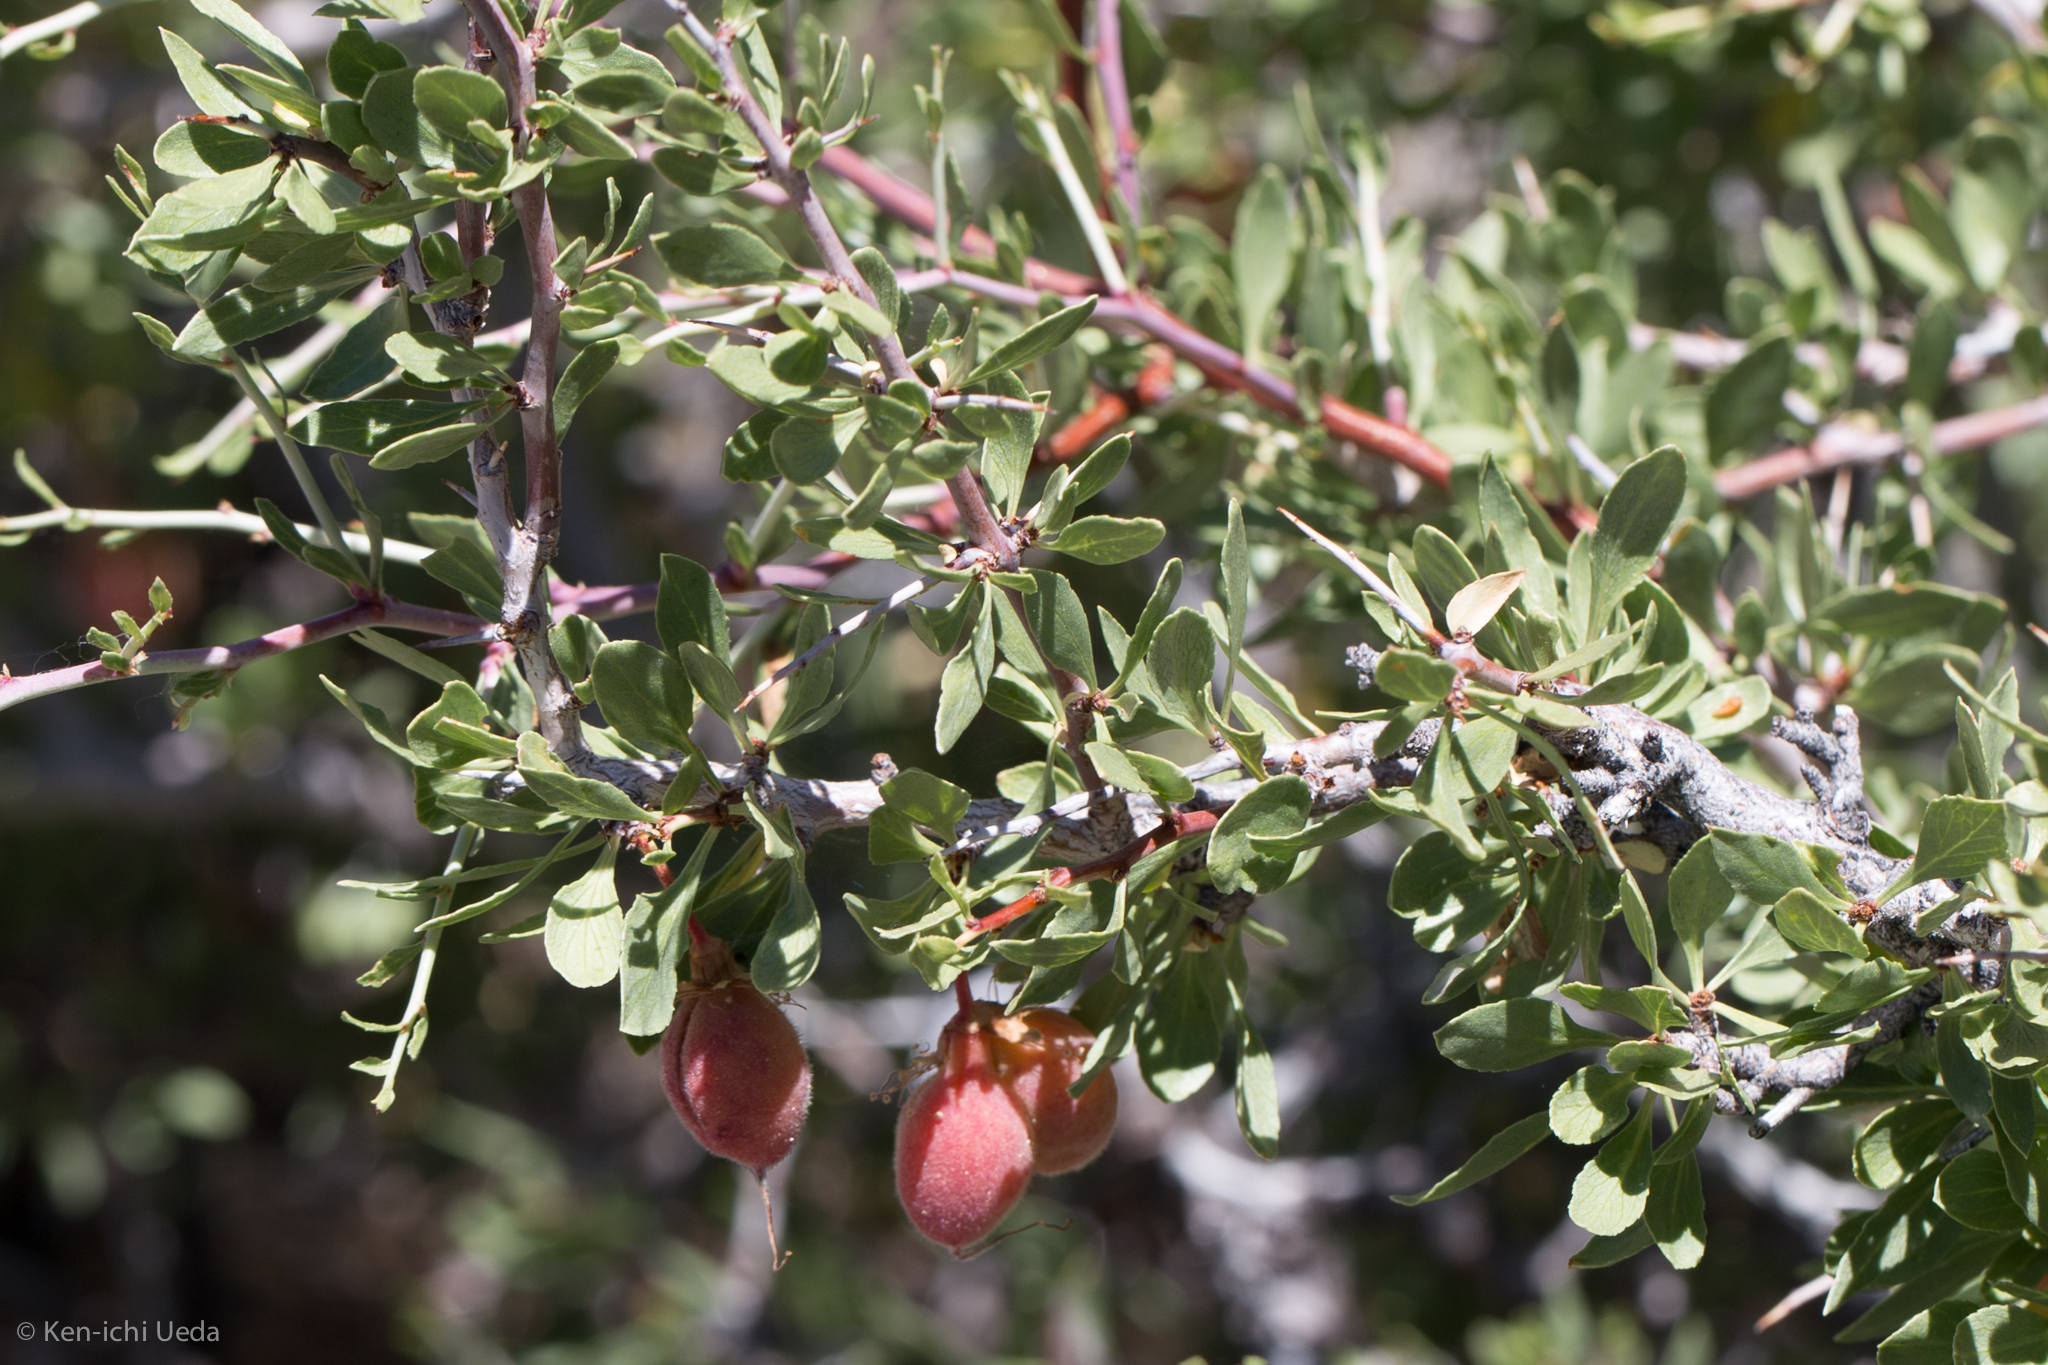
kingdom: Plantae
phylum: Tracheophyta
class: Magnoliopsida
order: Rosales
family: Rosaceae
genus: Prunus
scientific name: Prunus andersonii
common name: Desert peach
